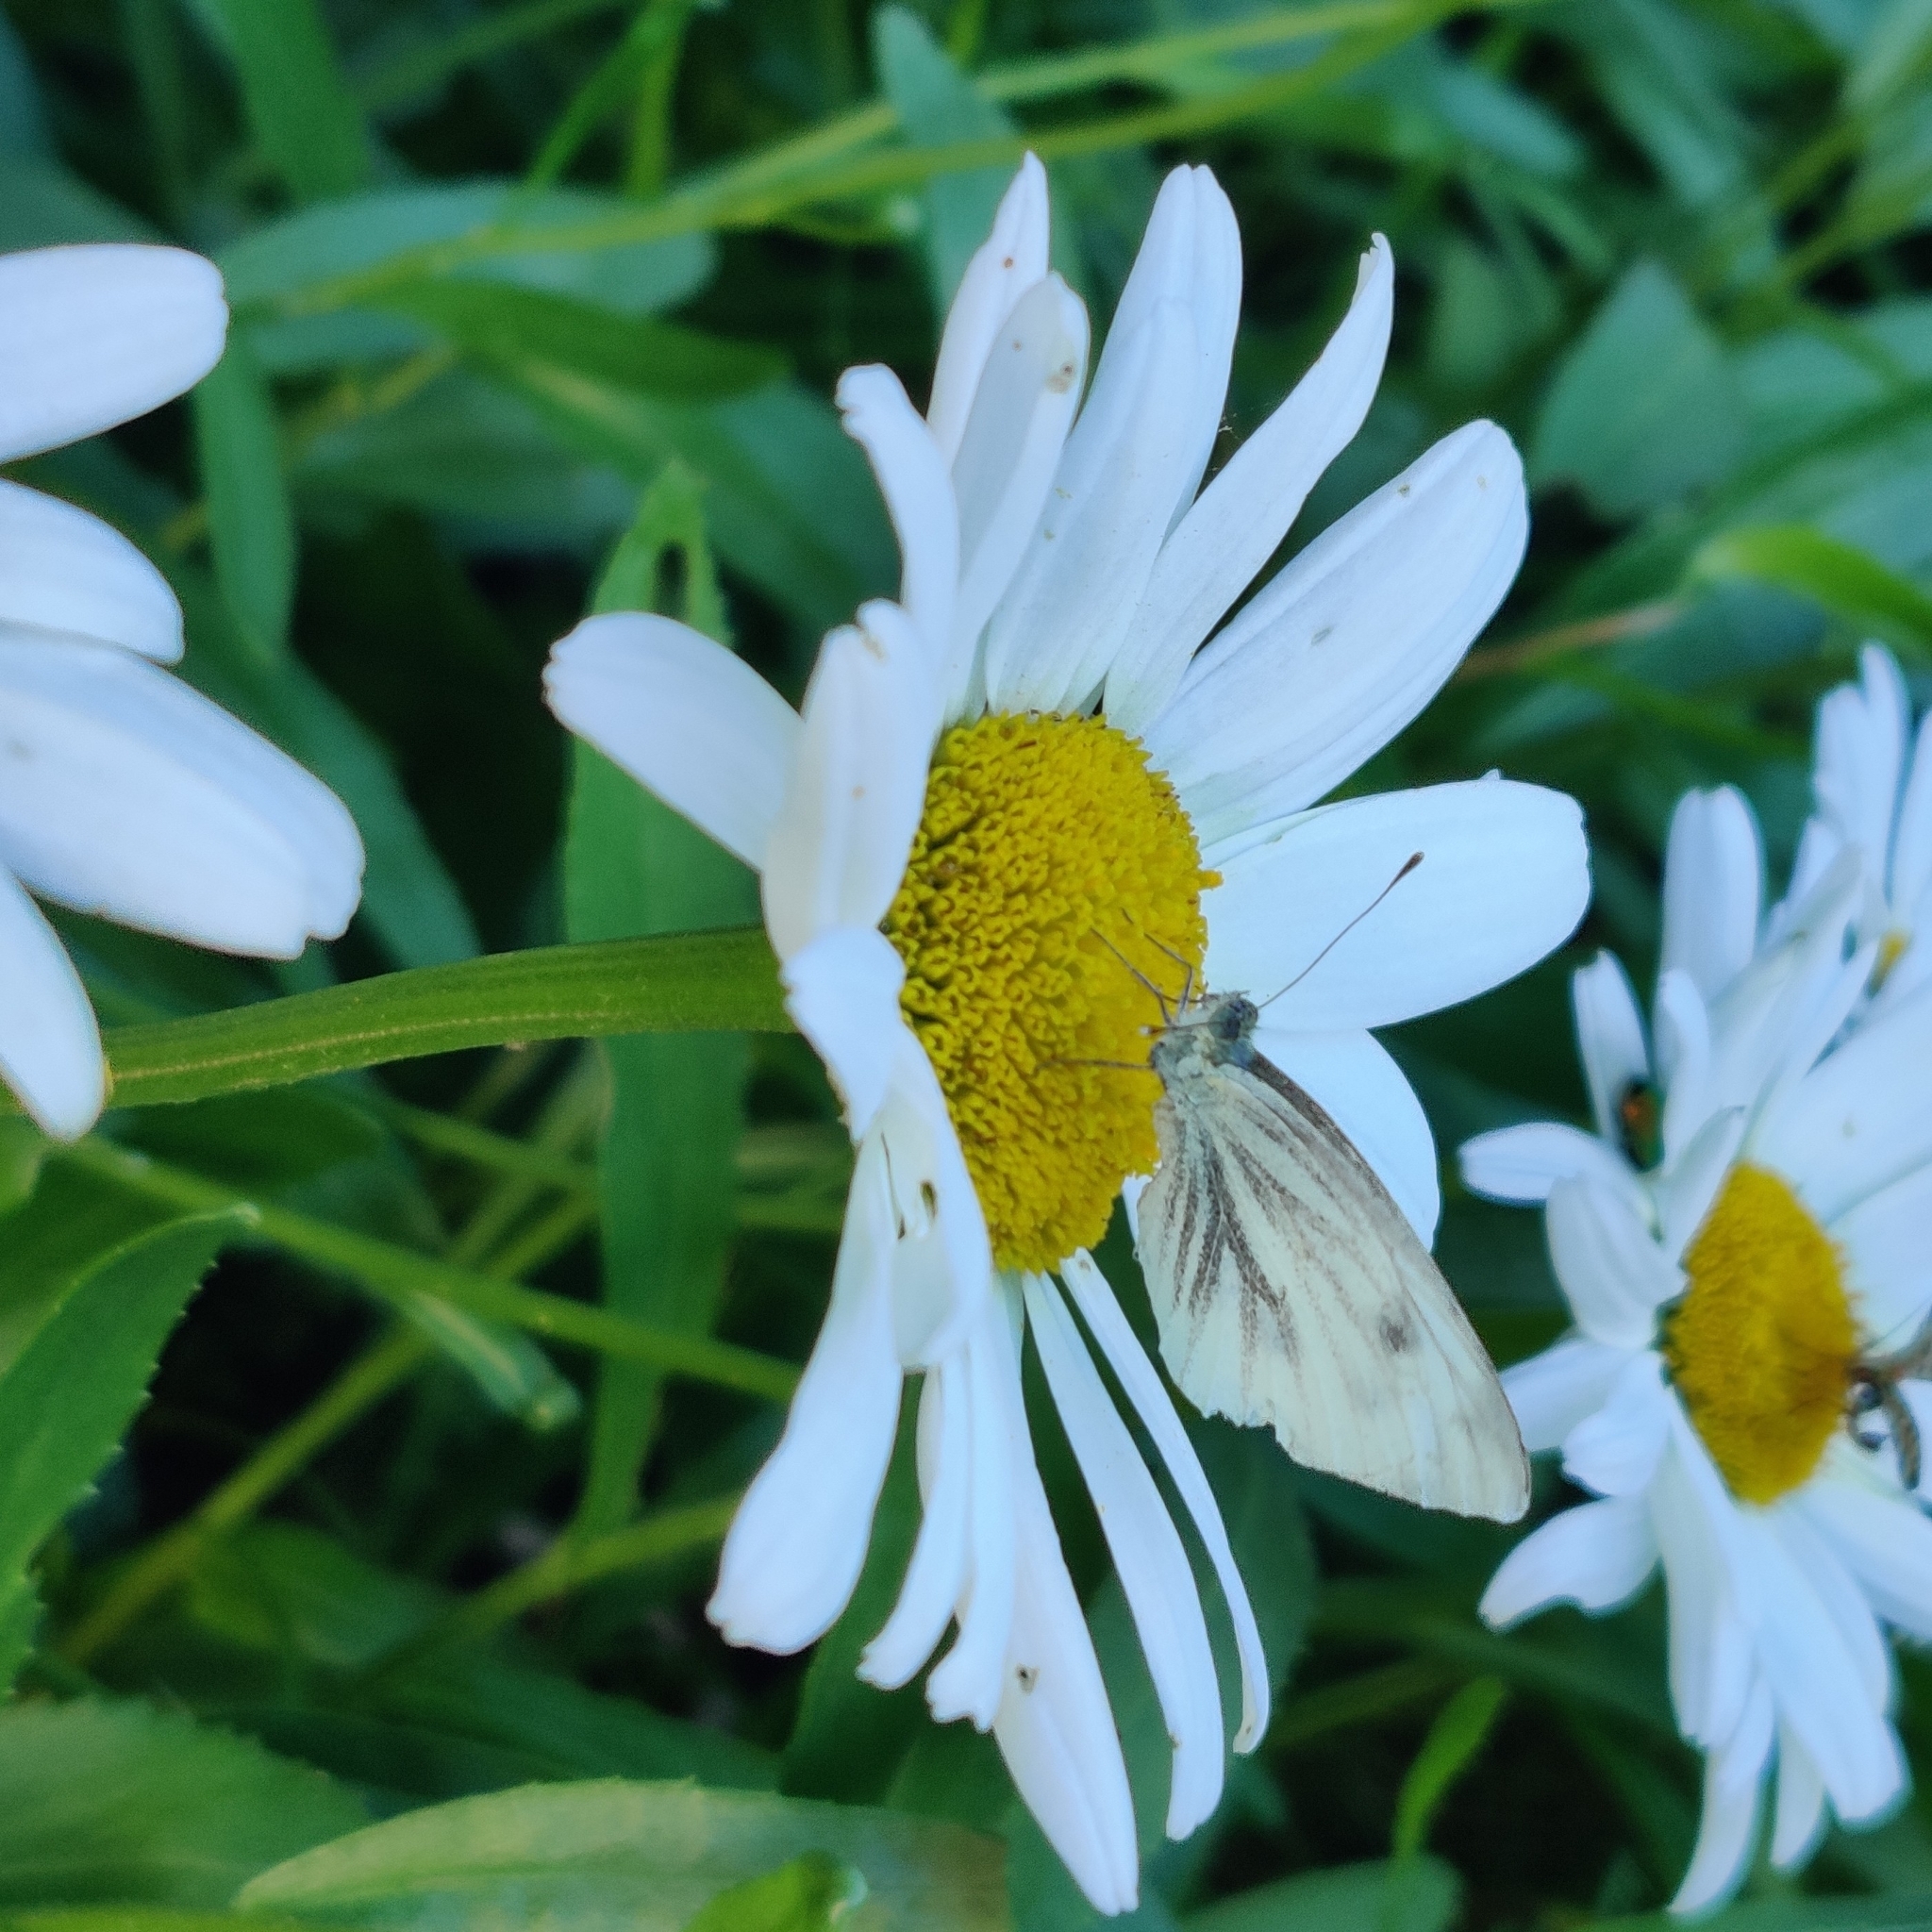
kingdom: Animalia
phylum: Arthropoda
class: Insecta
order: Lepidoptera
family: Pieridae
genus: Pieris
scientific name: Pieris napi
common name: Green-veined white
